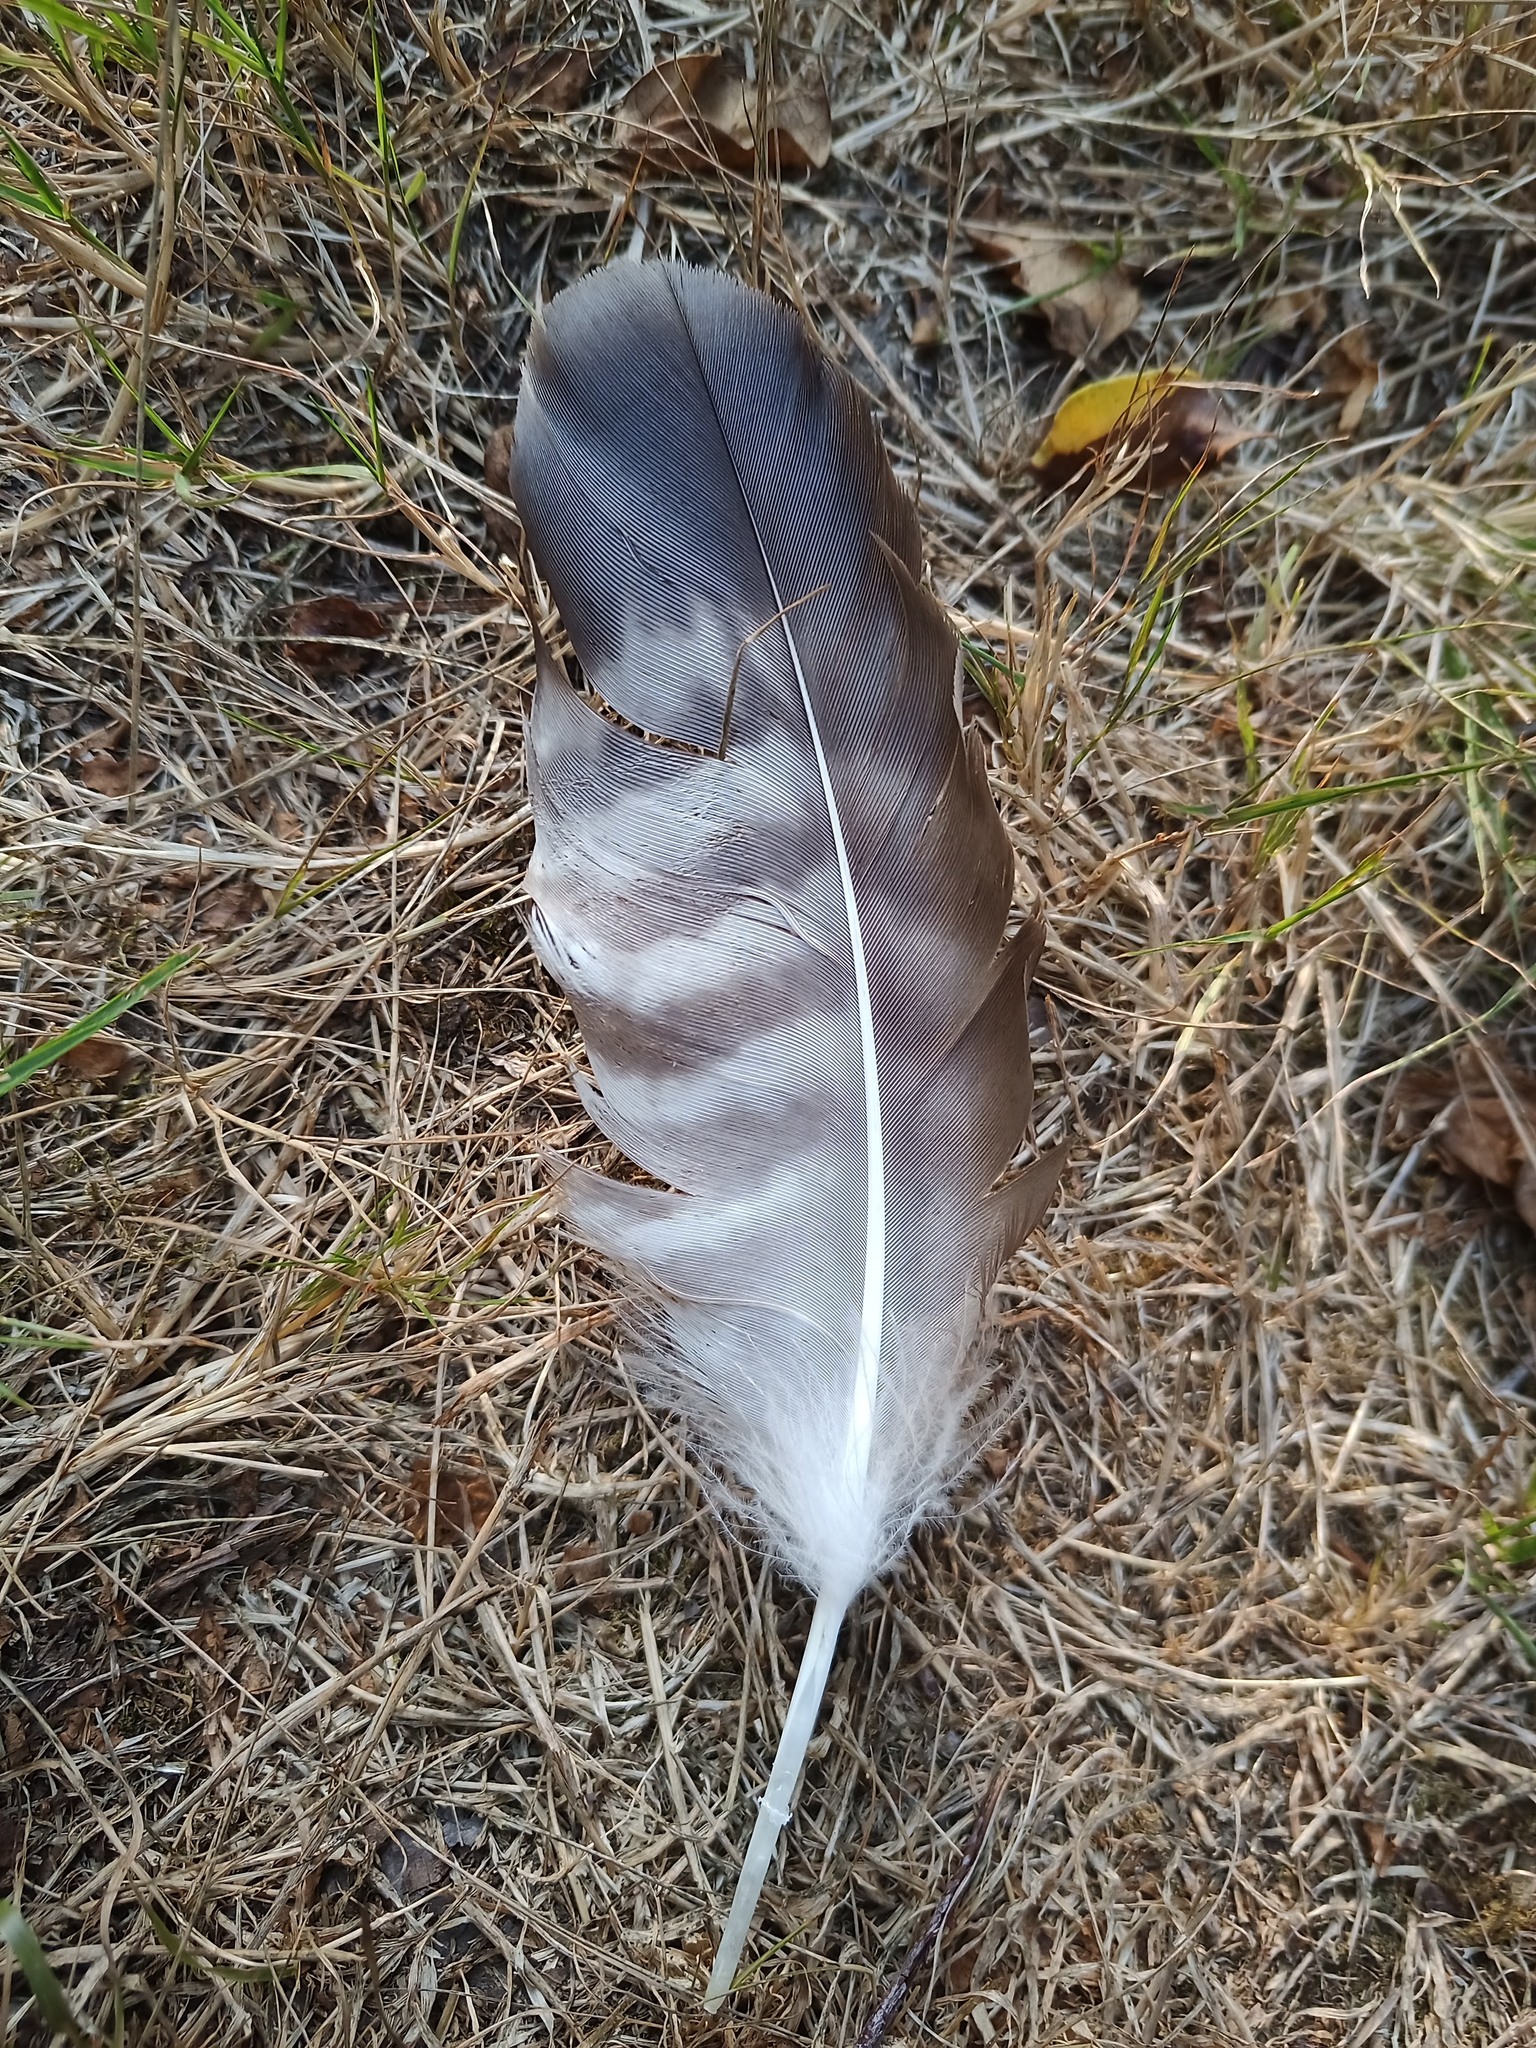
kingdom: Animalia
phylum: Chordata
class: Aves
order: Accipitriformes
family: Accipitridae
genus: Buteo
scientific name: Buteo buteo
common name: Common buzzard
